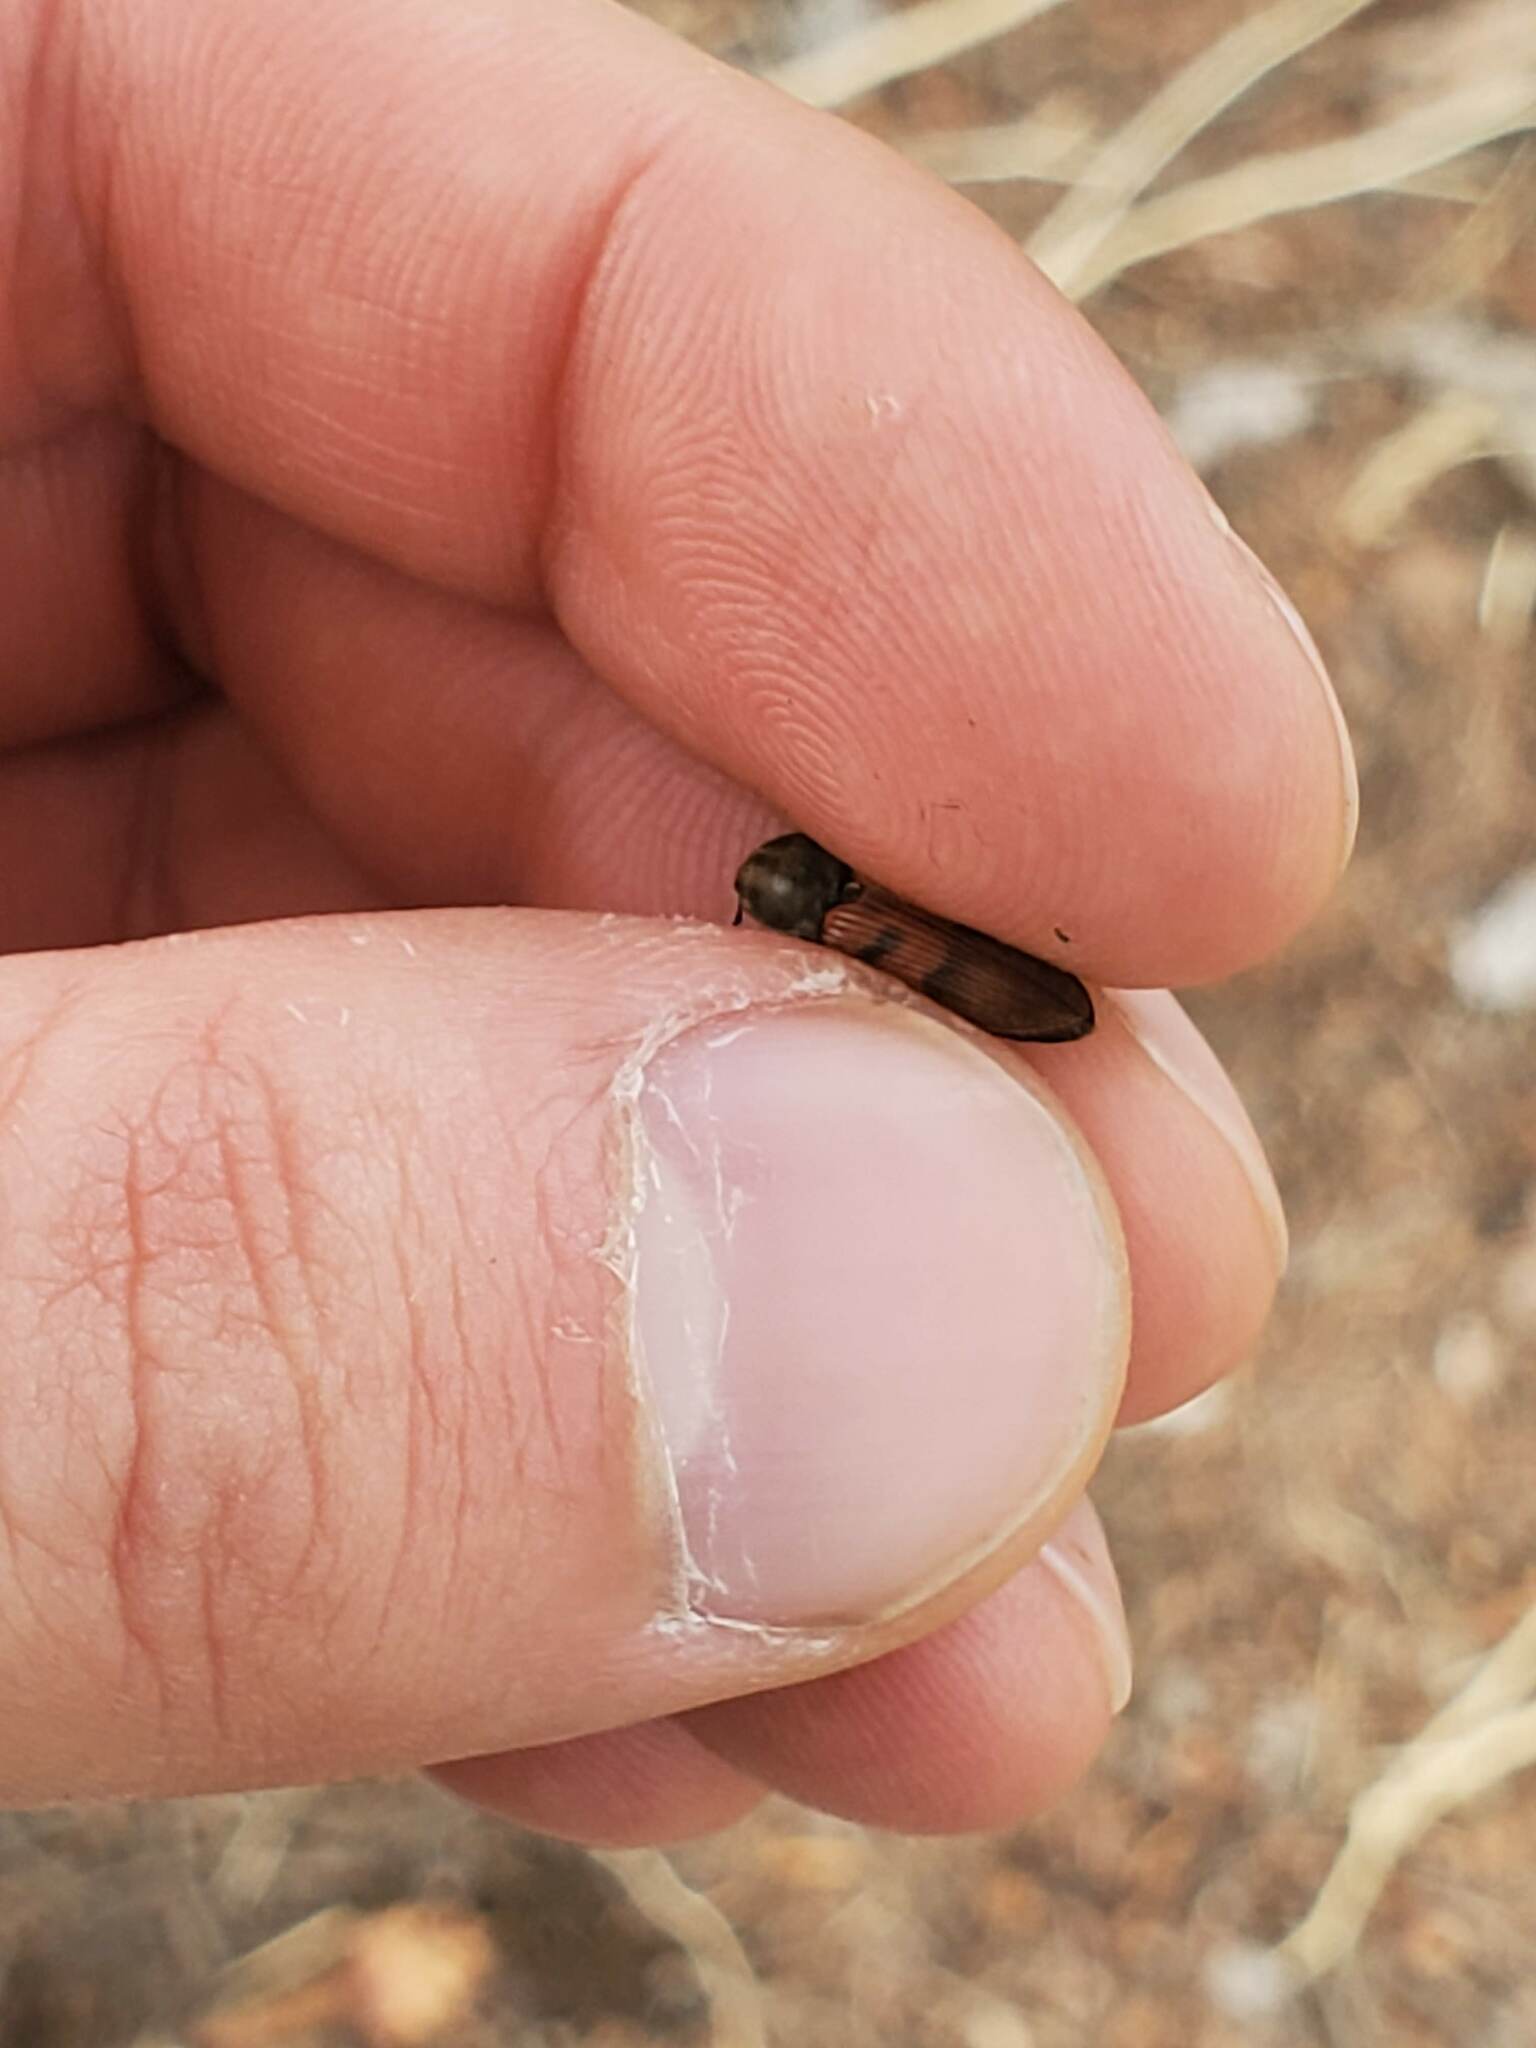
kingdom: Animalia
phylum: Arthropoda
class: Insecta
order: Coleoptera
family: Elateridae
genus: Pseudanostirus
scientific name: Pseudanostirus triundulatus
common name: Three-spotted click beetle
